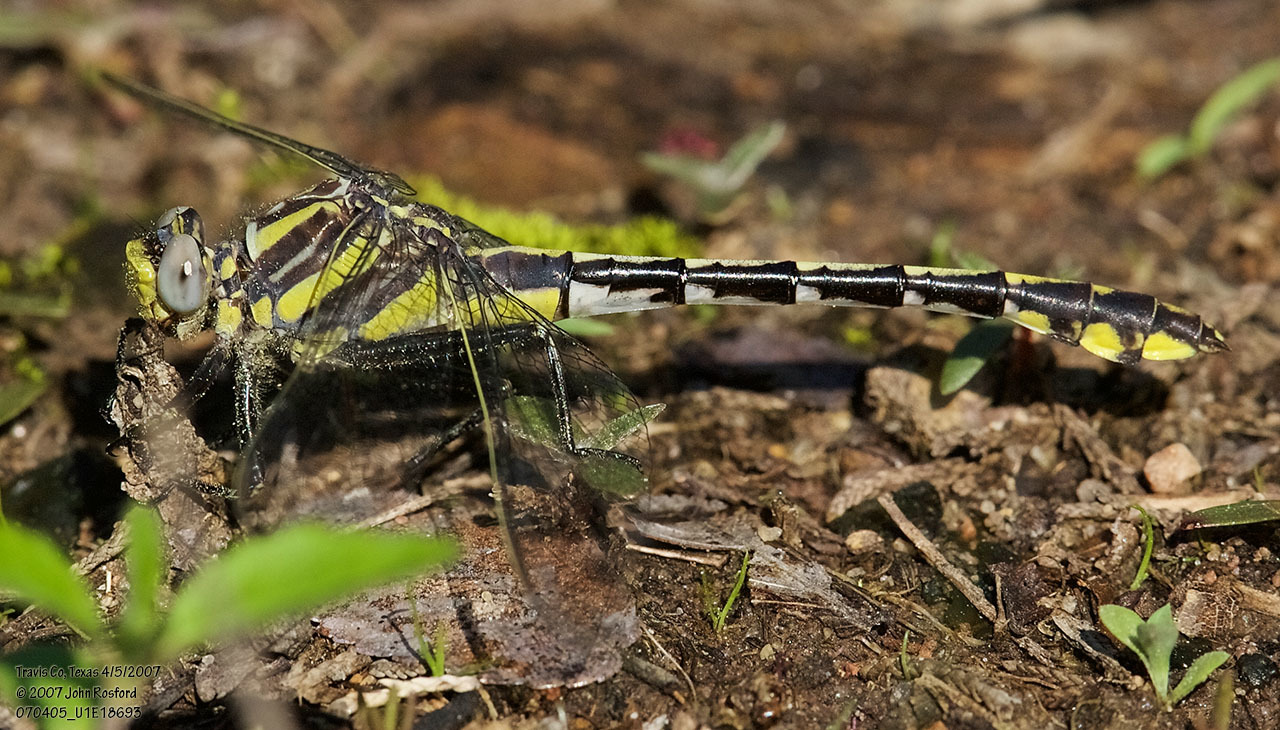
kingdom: Animalia
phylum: Arthropoda
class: Insecta
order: Odonata
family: Gomphidae
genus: Gomphurus
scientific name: Gomphurus externus
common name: Plains clubtail
